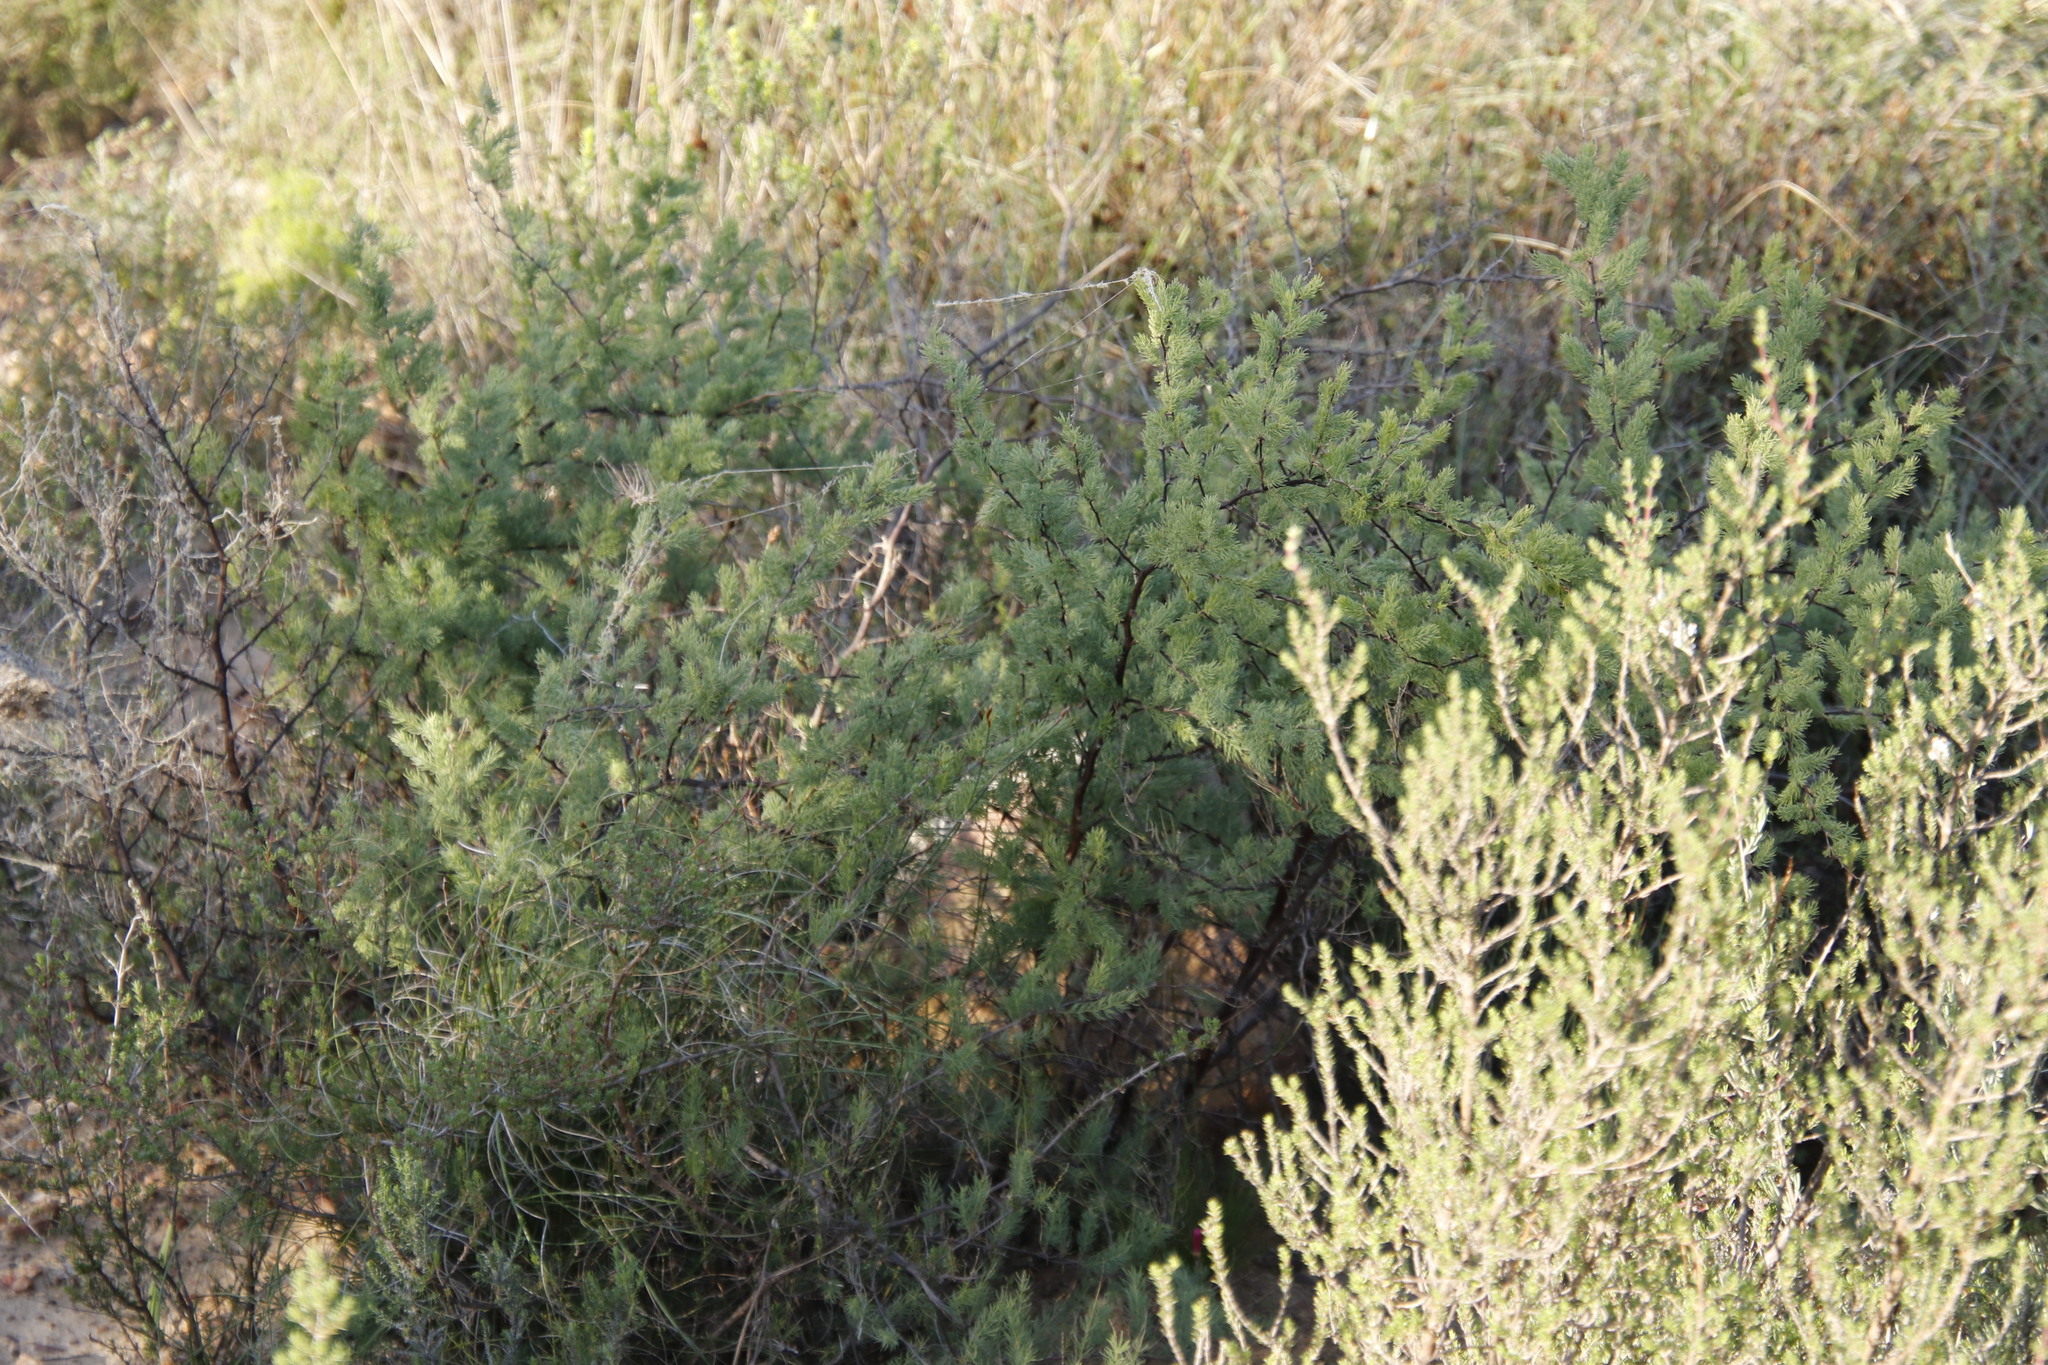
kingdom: Plantae
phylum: Tracheophyta
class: Liliopsida
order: Asparagales
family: Asparagaceae
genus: Asparagus
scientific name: Asparagus rubicundus
